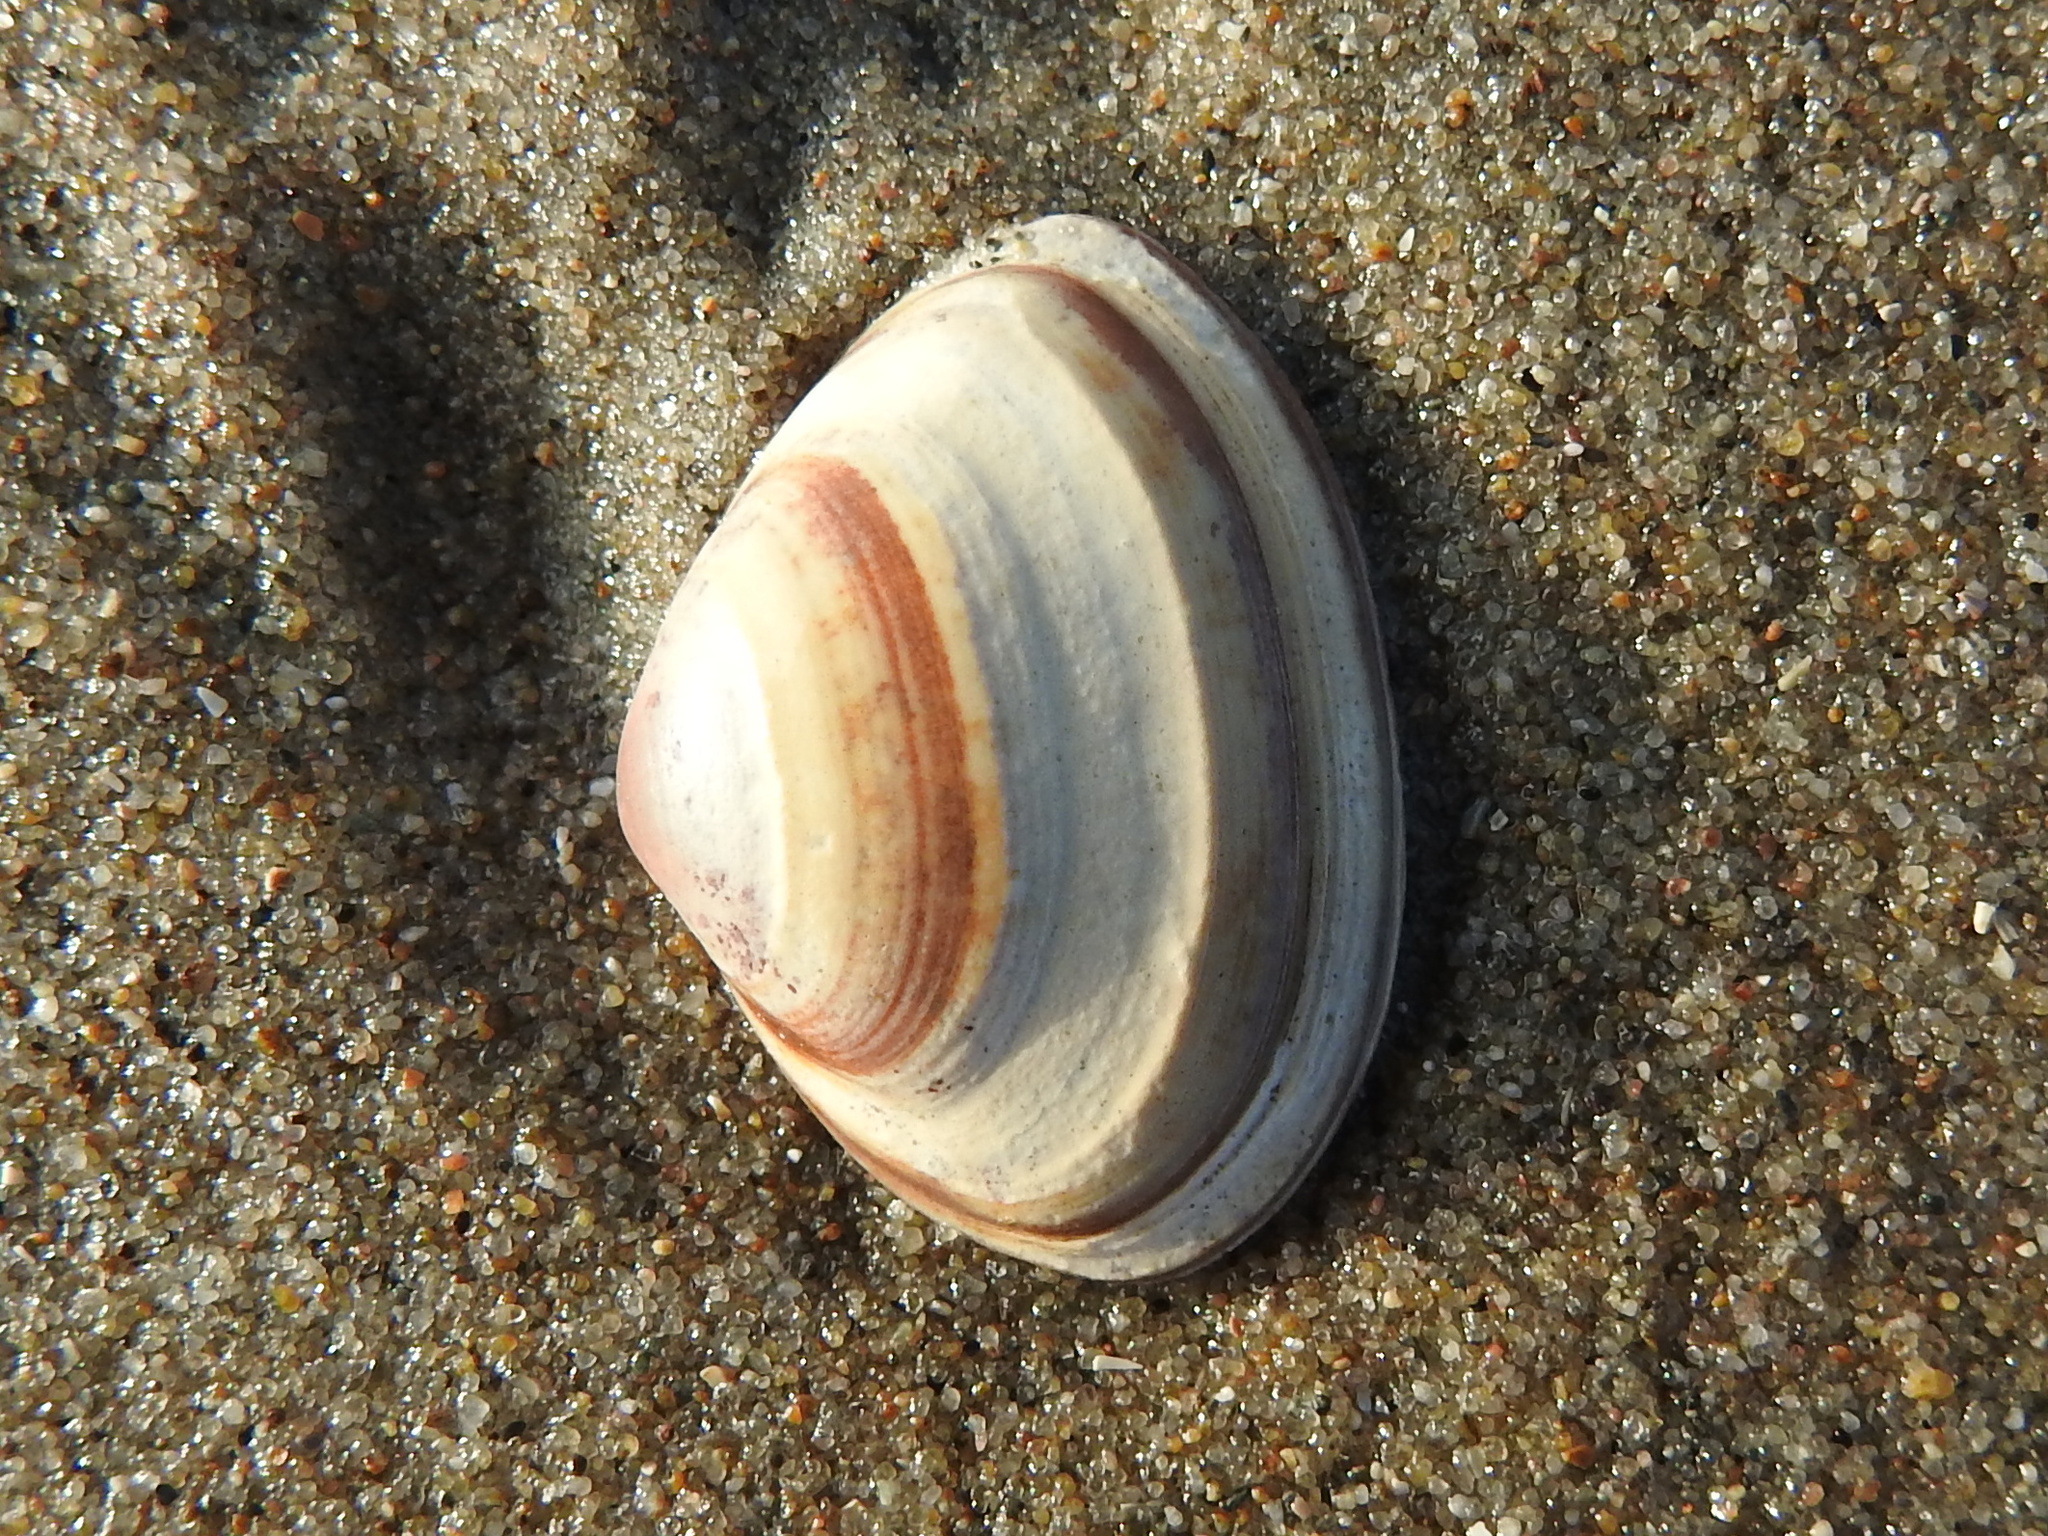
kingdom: Animalia
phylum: Mollusca
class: Bivalvia
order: Venerida
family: Mactridae
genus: Spisula
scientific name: Spisula elliptica
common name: Elliptic trough shell
